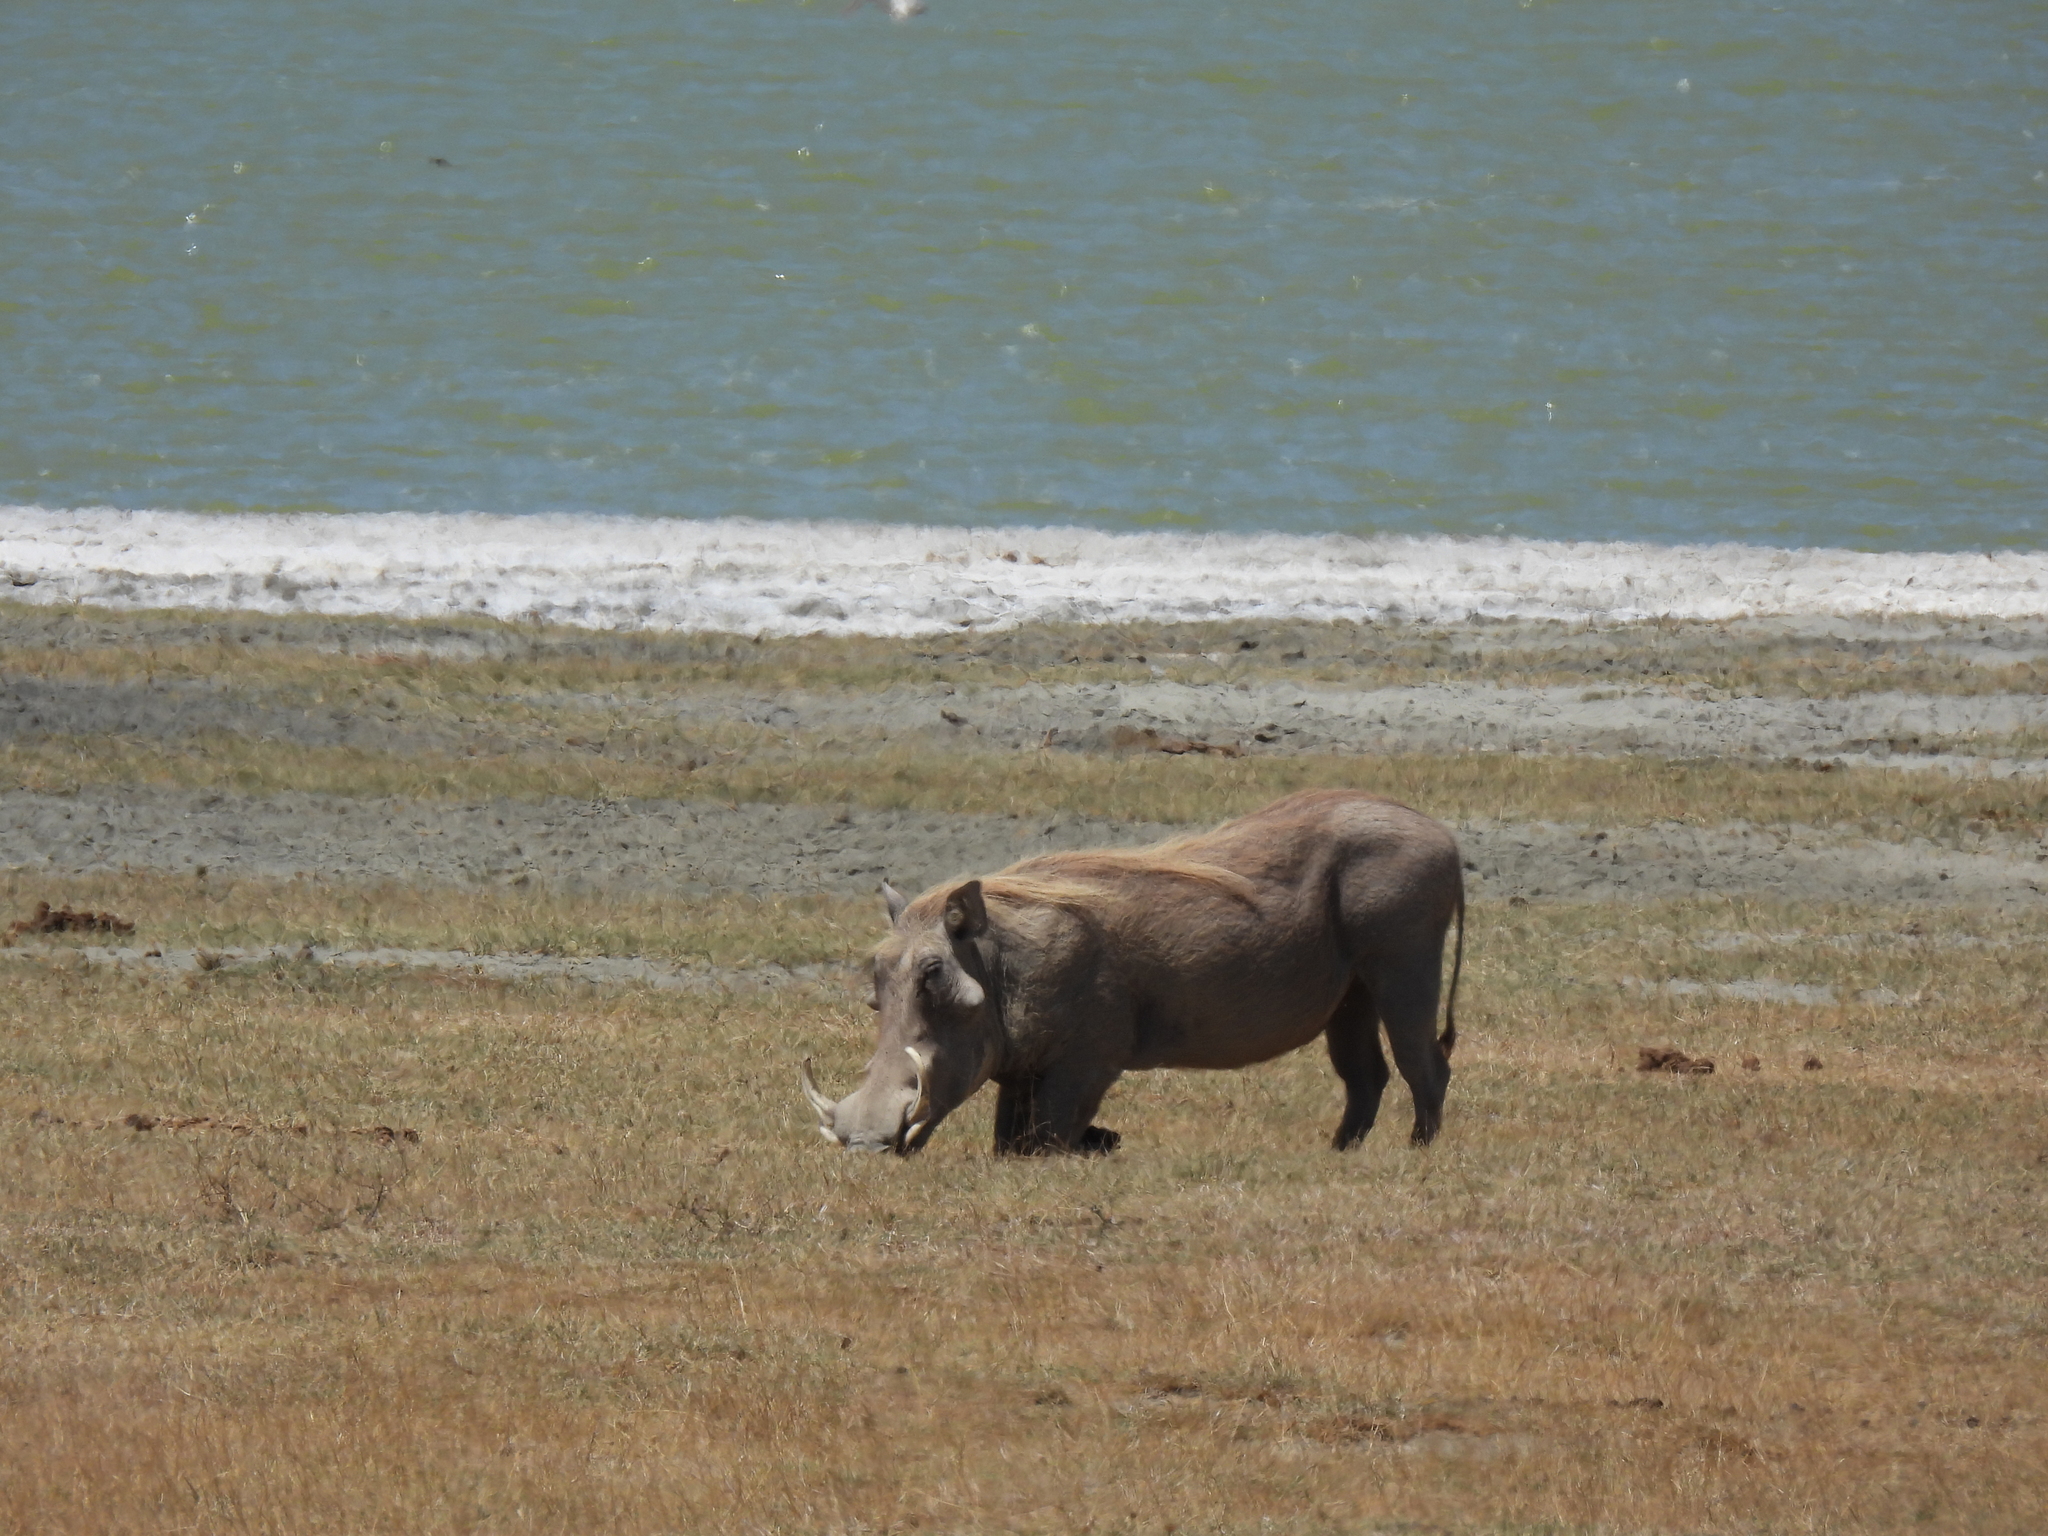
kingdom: Animalia
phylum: Chordata
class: Mammalia
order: Artiodactyla
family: Suidae
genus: Phacochoerus
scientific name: Phacochoerus africanus
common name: Common warthog
